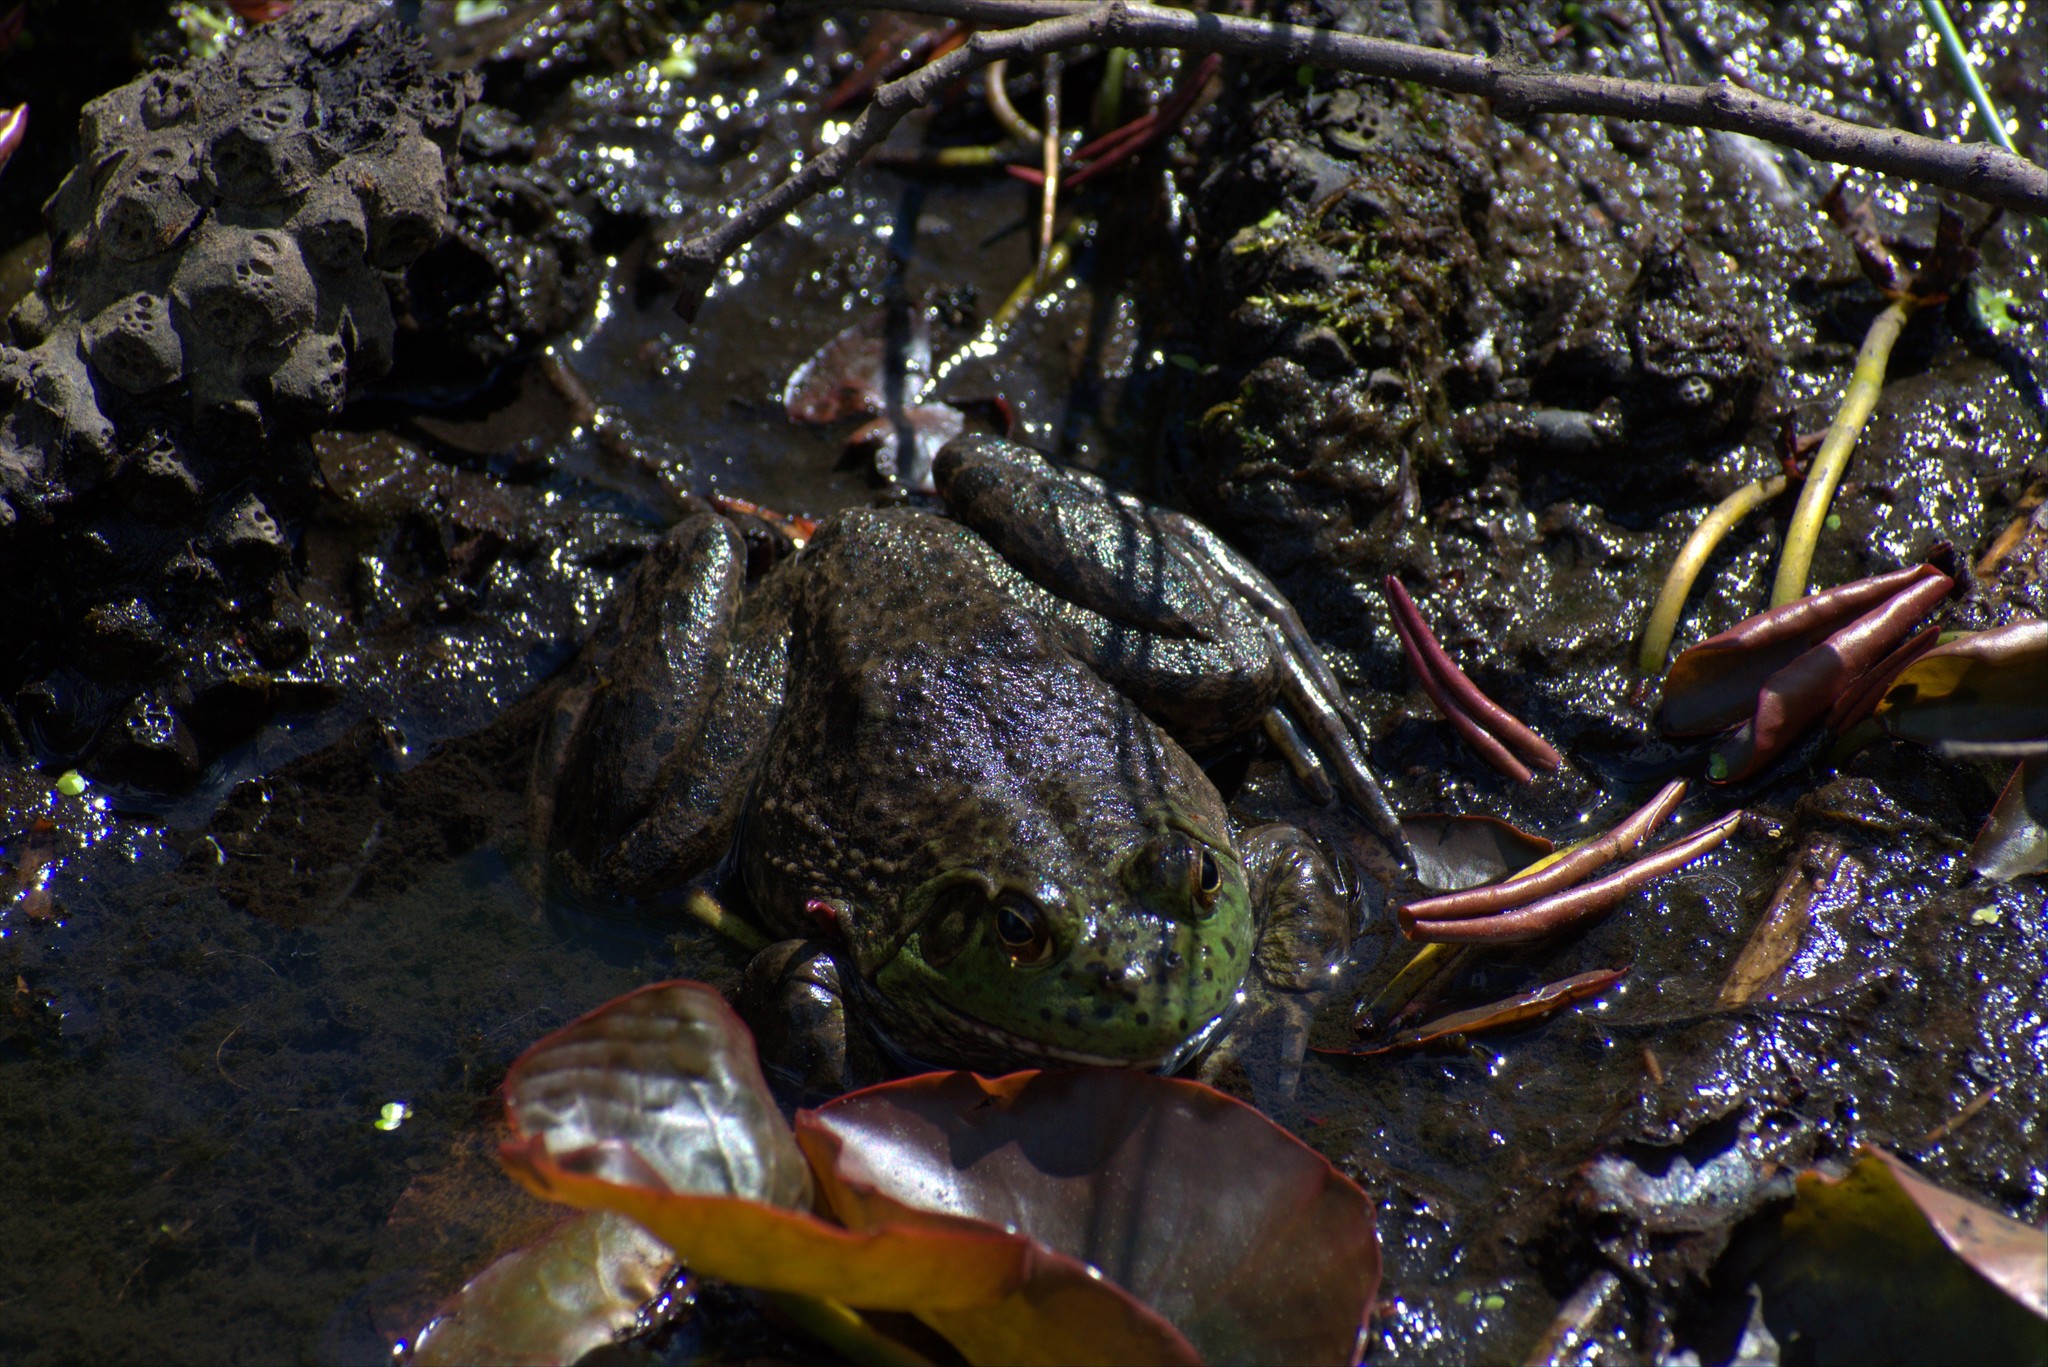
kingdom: Animalia
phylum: Chordata
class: Amphibia
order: Anura
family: Ranidae
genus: Lithobates
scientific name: Lithobates catesbeianus
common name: American bullfrog
